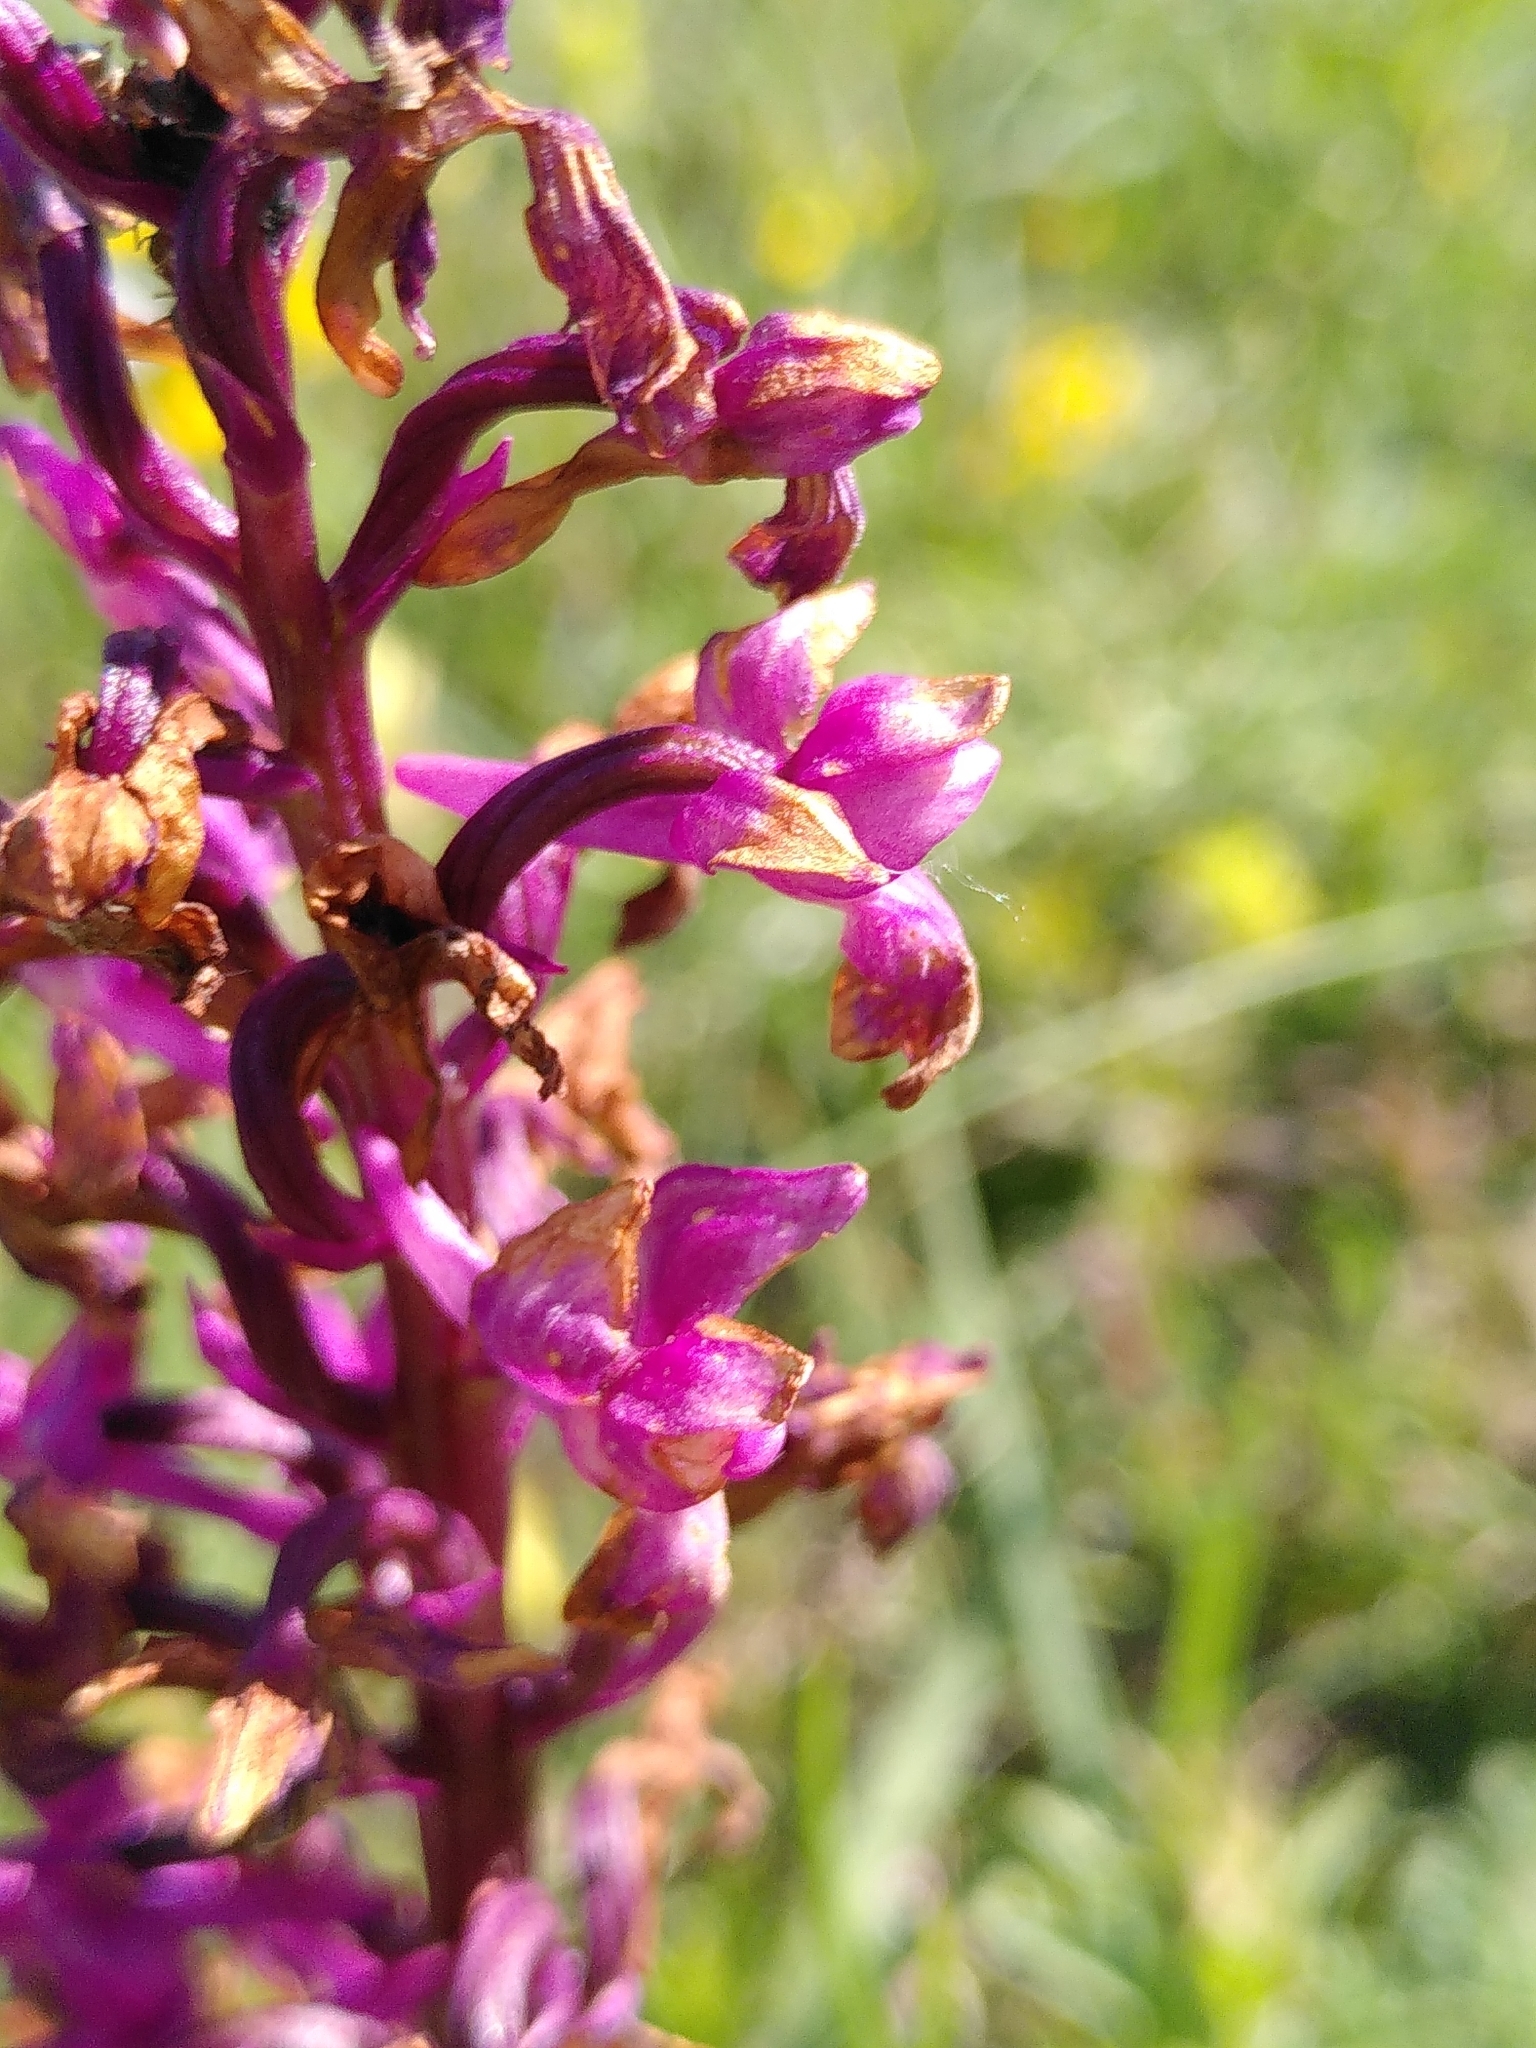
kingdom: Plantae
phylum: Tracheophyta
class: Liliopsida
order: Asparagales
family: Orchidaceae
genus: Orchis
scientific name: Orchis mascula
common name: Early-purple orchid
